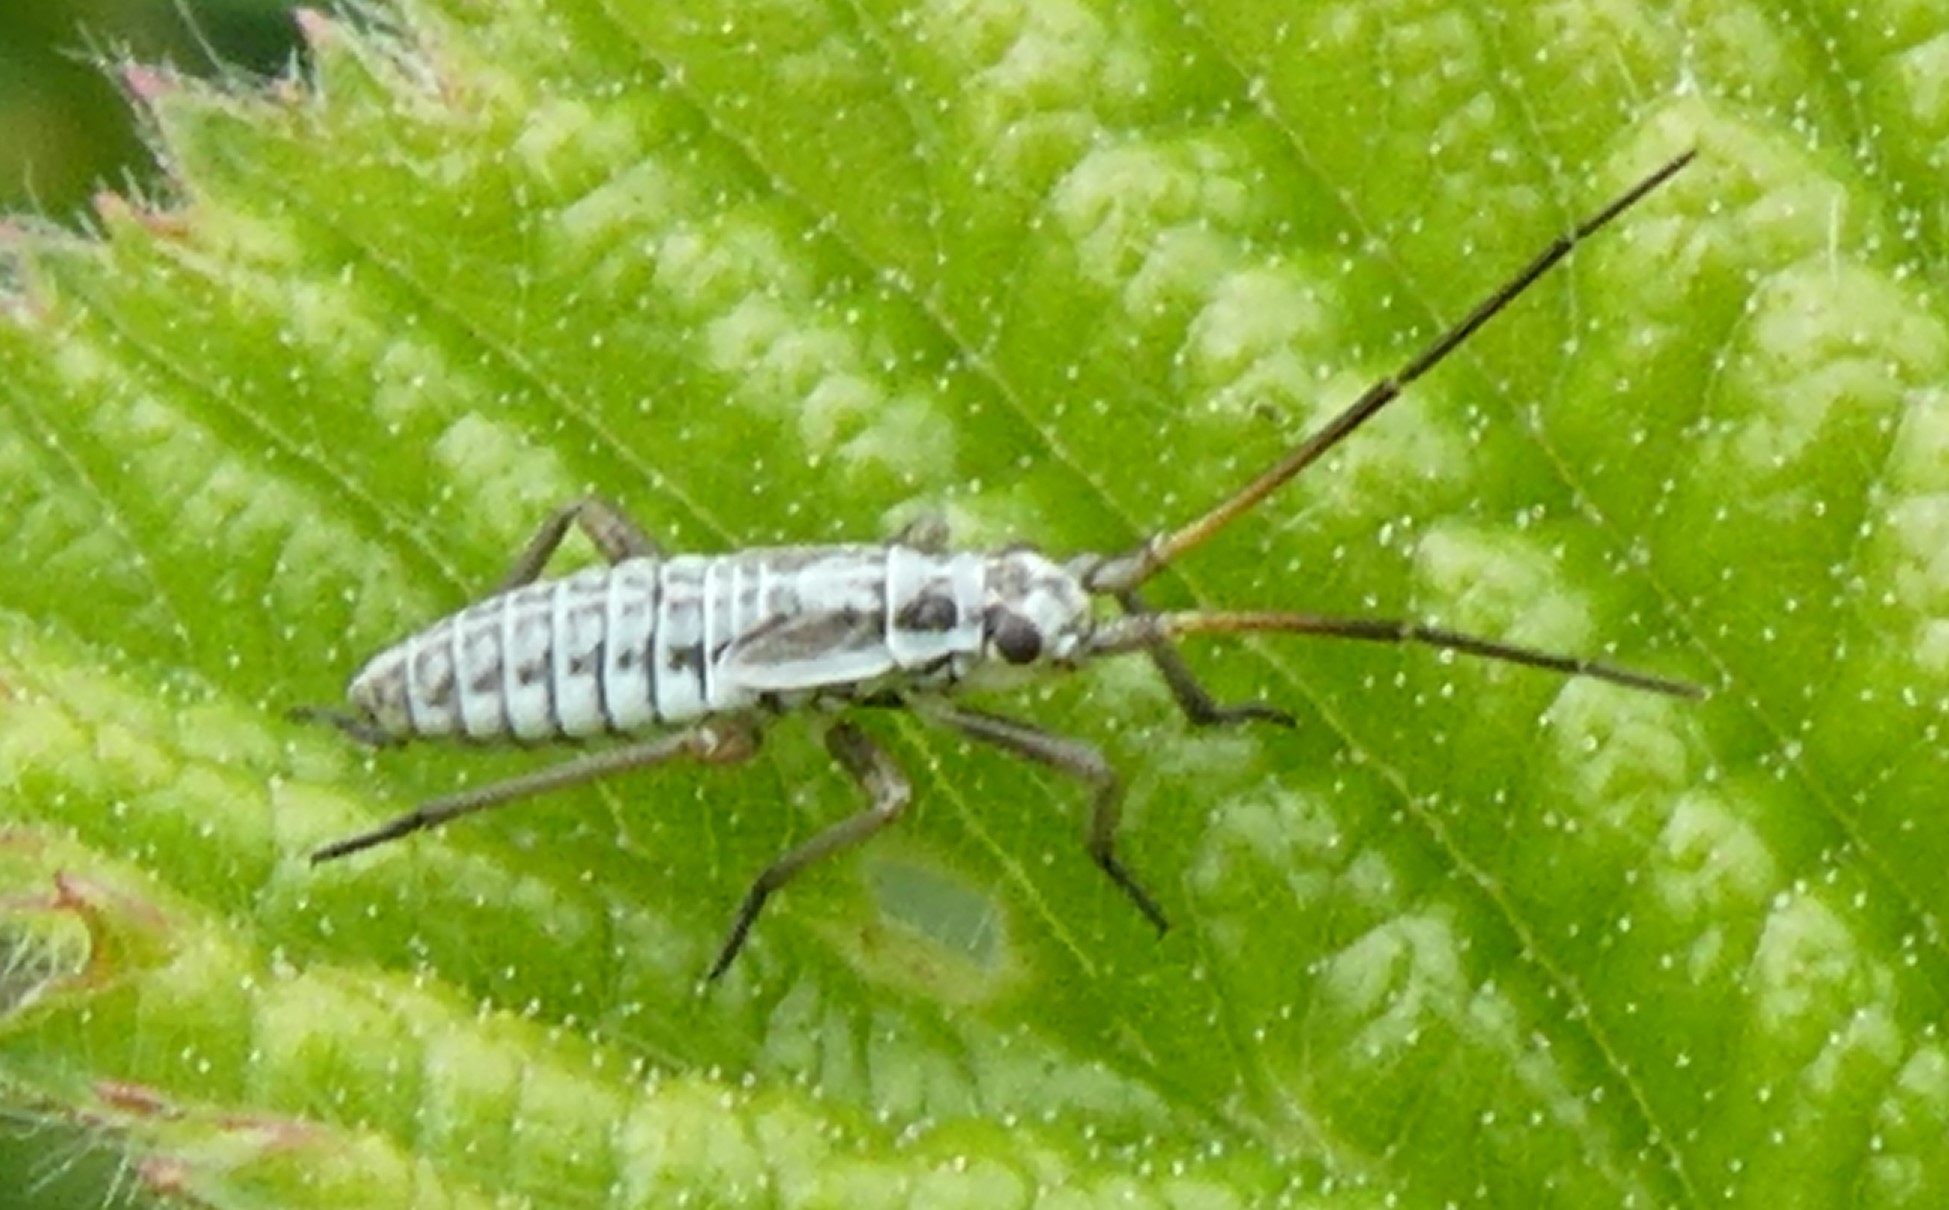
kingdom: Animalia
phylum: Arthropoda
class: Insecta
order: Hemiptera
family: Miridae
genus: Leptopterna
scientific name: Leptopterna dolabrata
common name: Meadow plant bug
